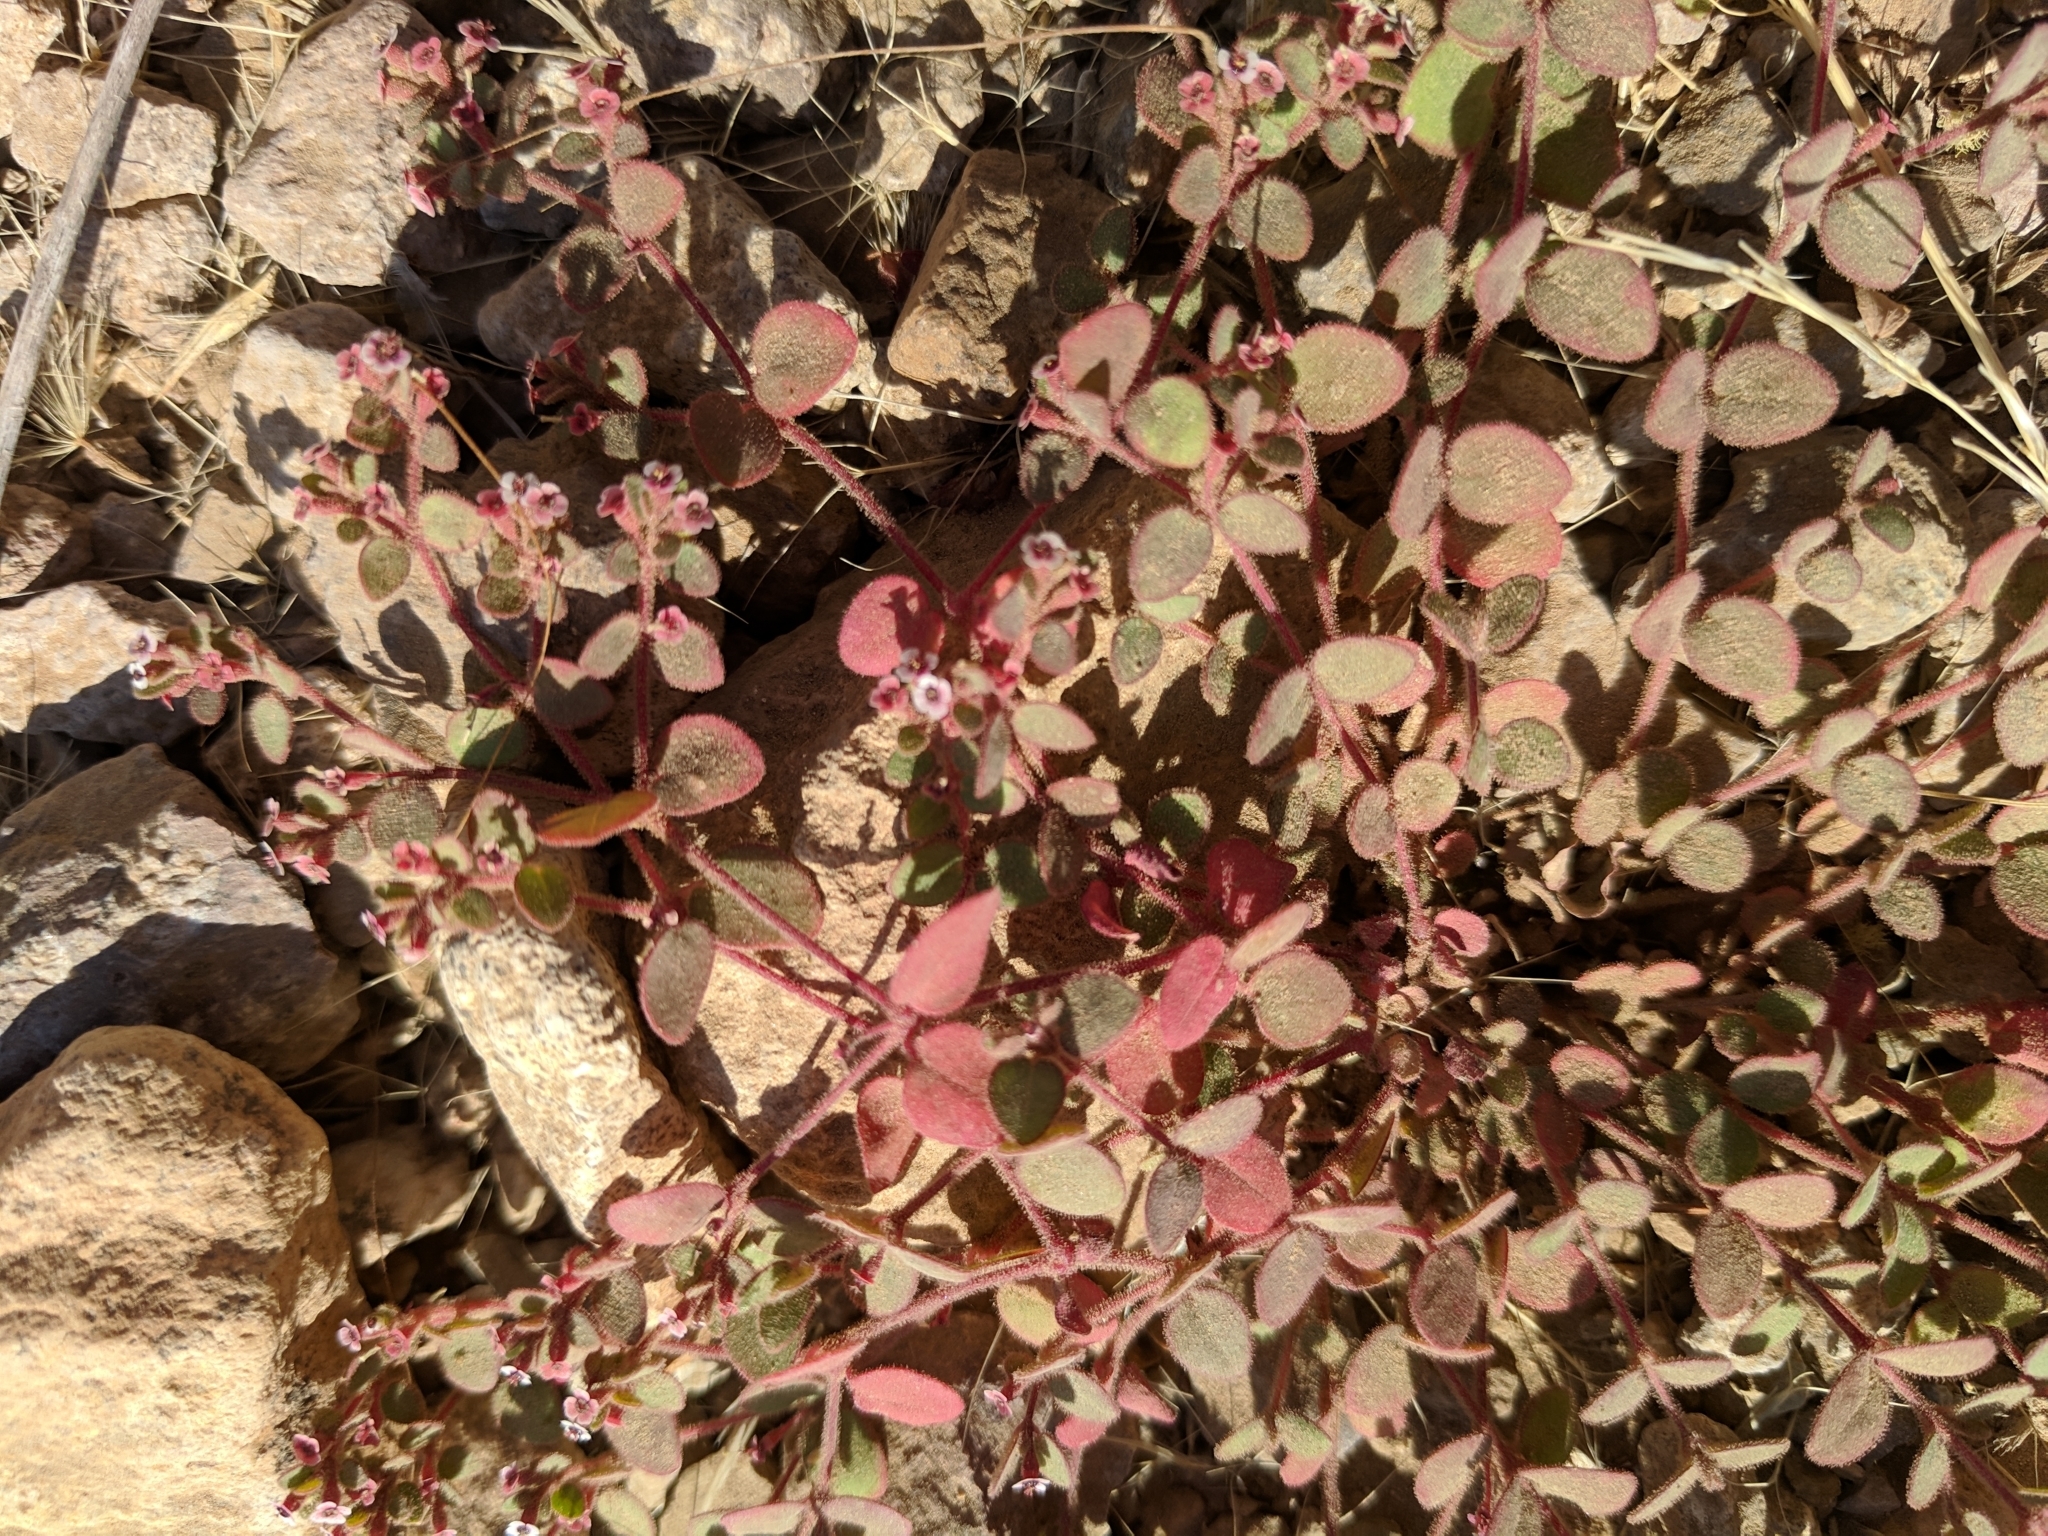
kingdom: Plantae
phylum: Tracheophyta
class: Magnoliopsida
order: Malpighiales
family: Euphorbiaceae
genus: Euphorbia
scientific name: Euphorbia arizonica
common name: Arizona spurge
